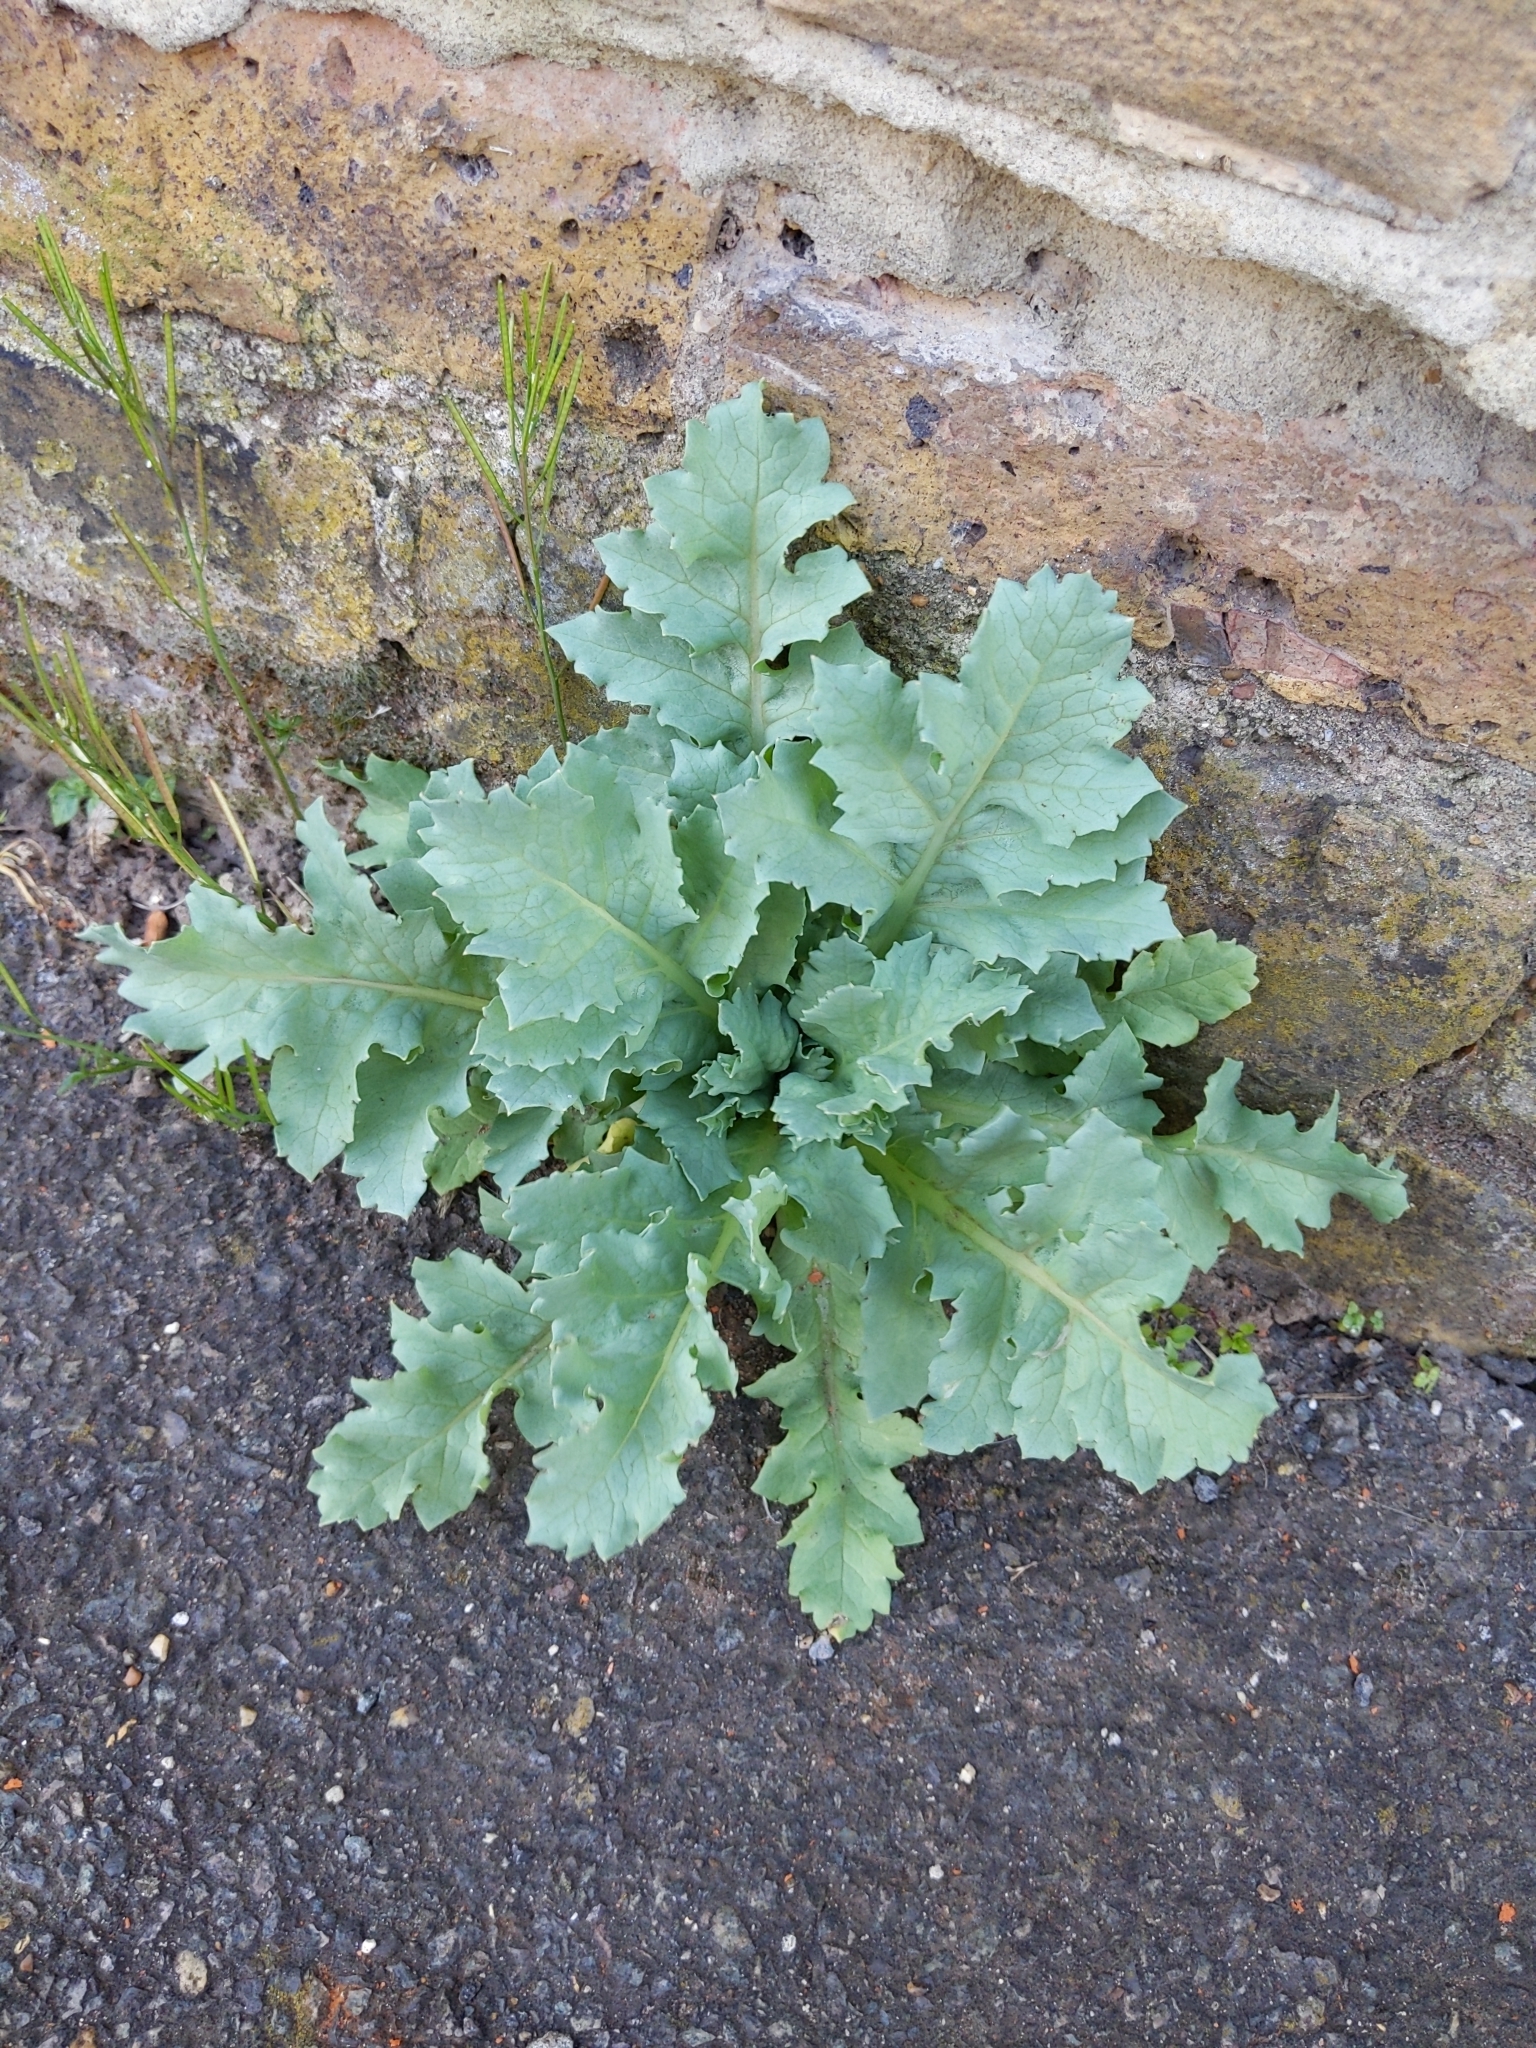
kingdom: Plantae
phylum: Tracheophyta
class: Magnoliopsida
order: Ranunculales
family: Papaveraceae
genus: Papaver
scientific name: Papaver somniferum
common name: Opium poppy
